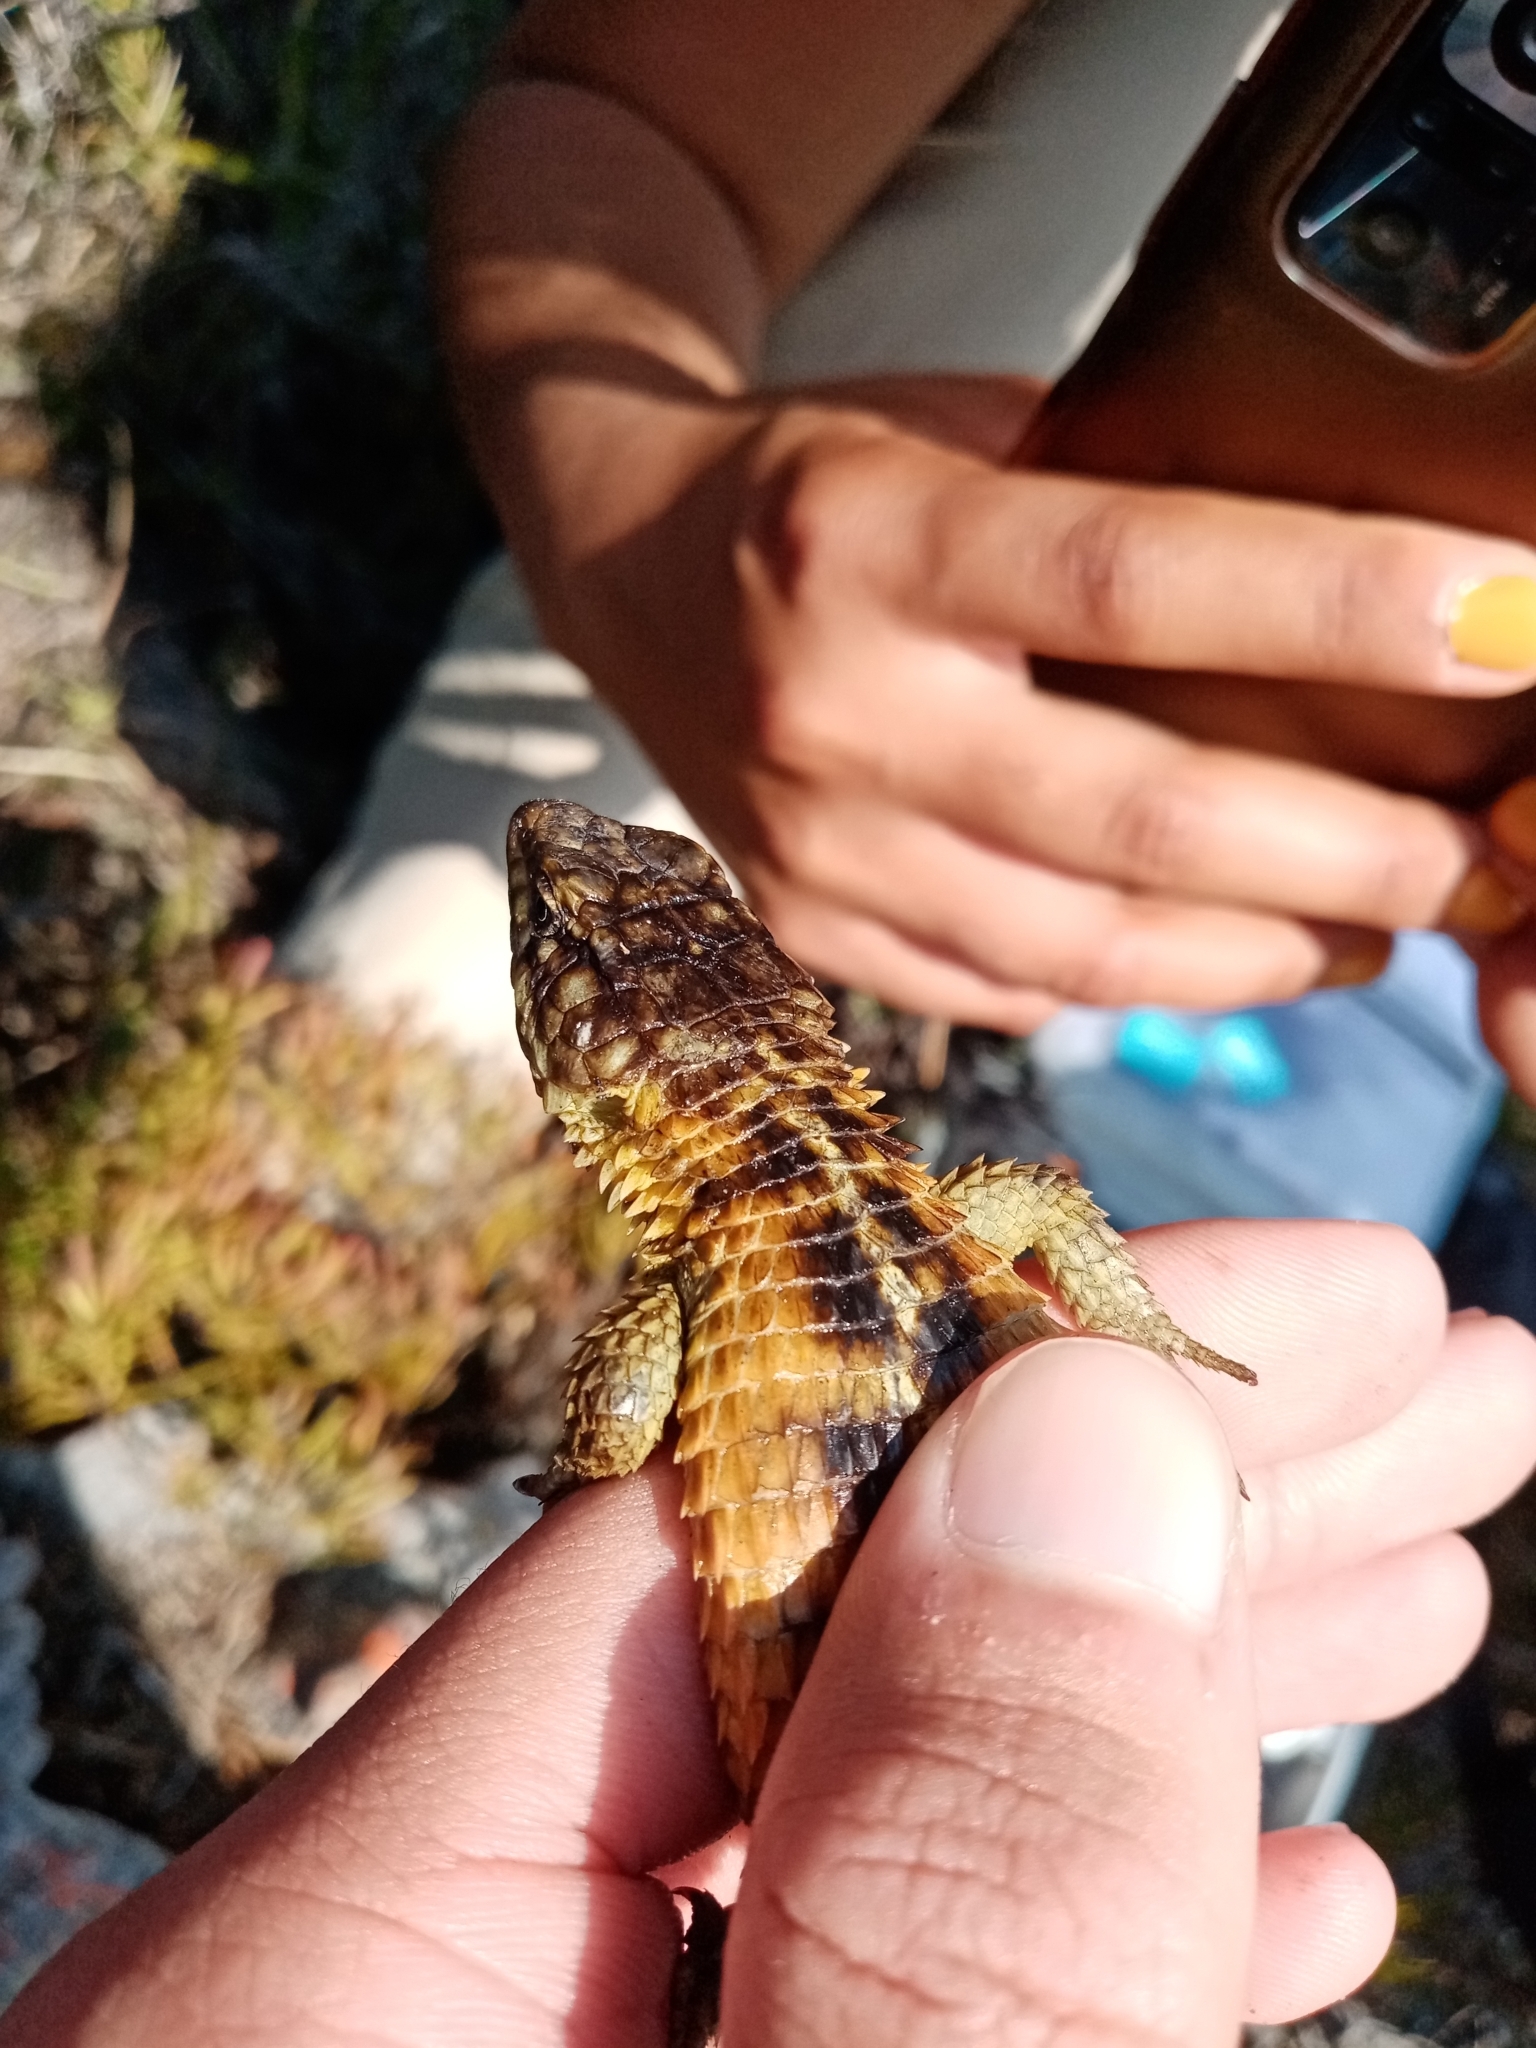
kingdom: Animalia
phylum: Chordata
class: Squamata
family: Cordylidae
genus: Cordylus
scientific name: Cordylus cordylus
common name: Cape girdled lizard
